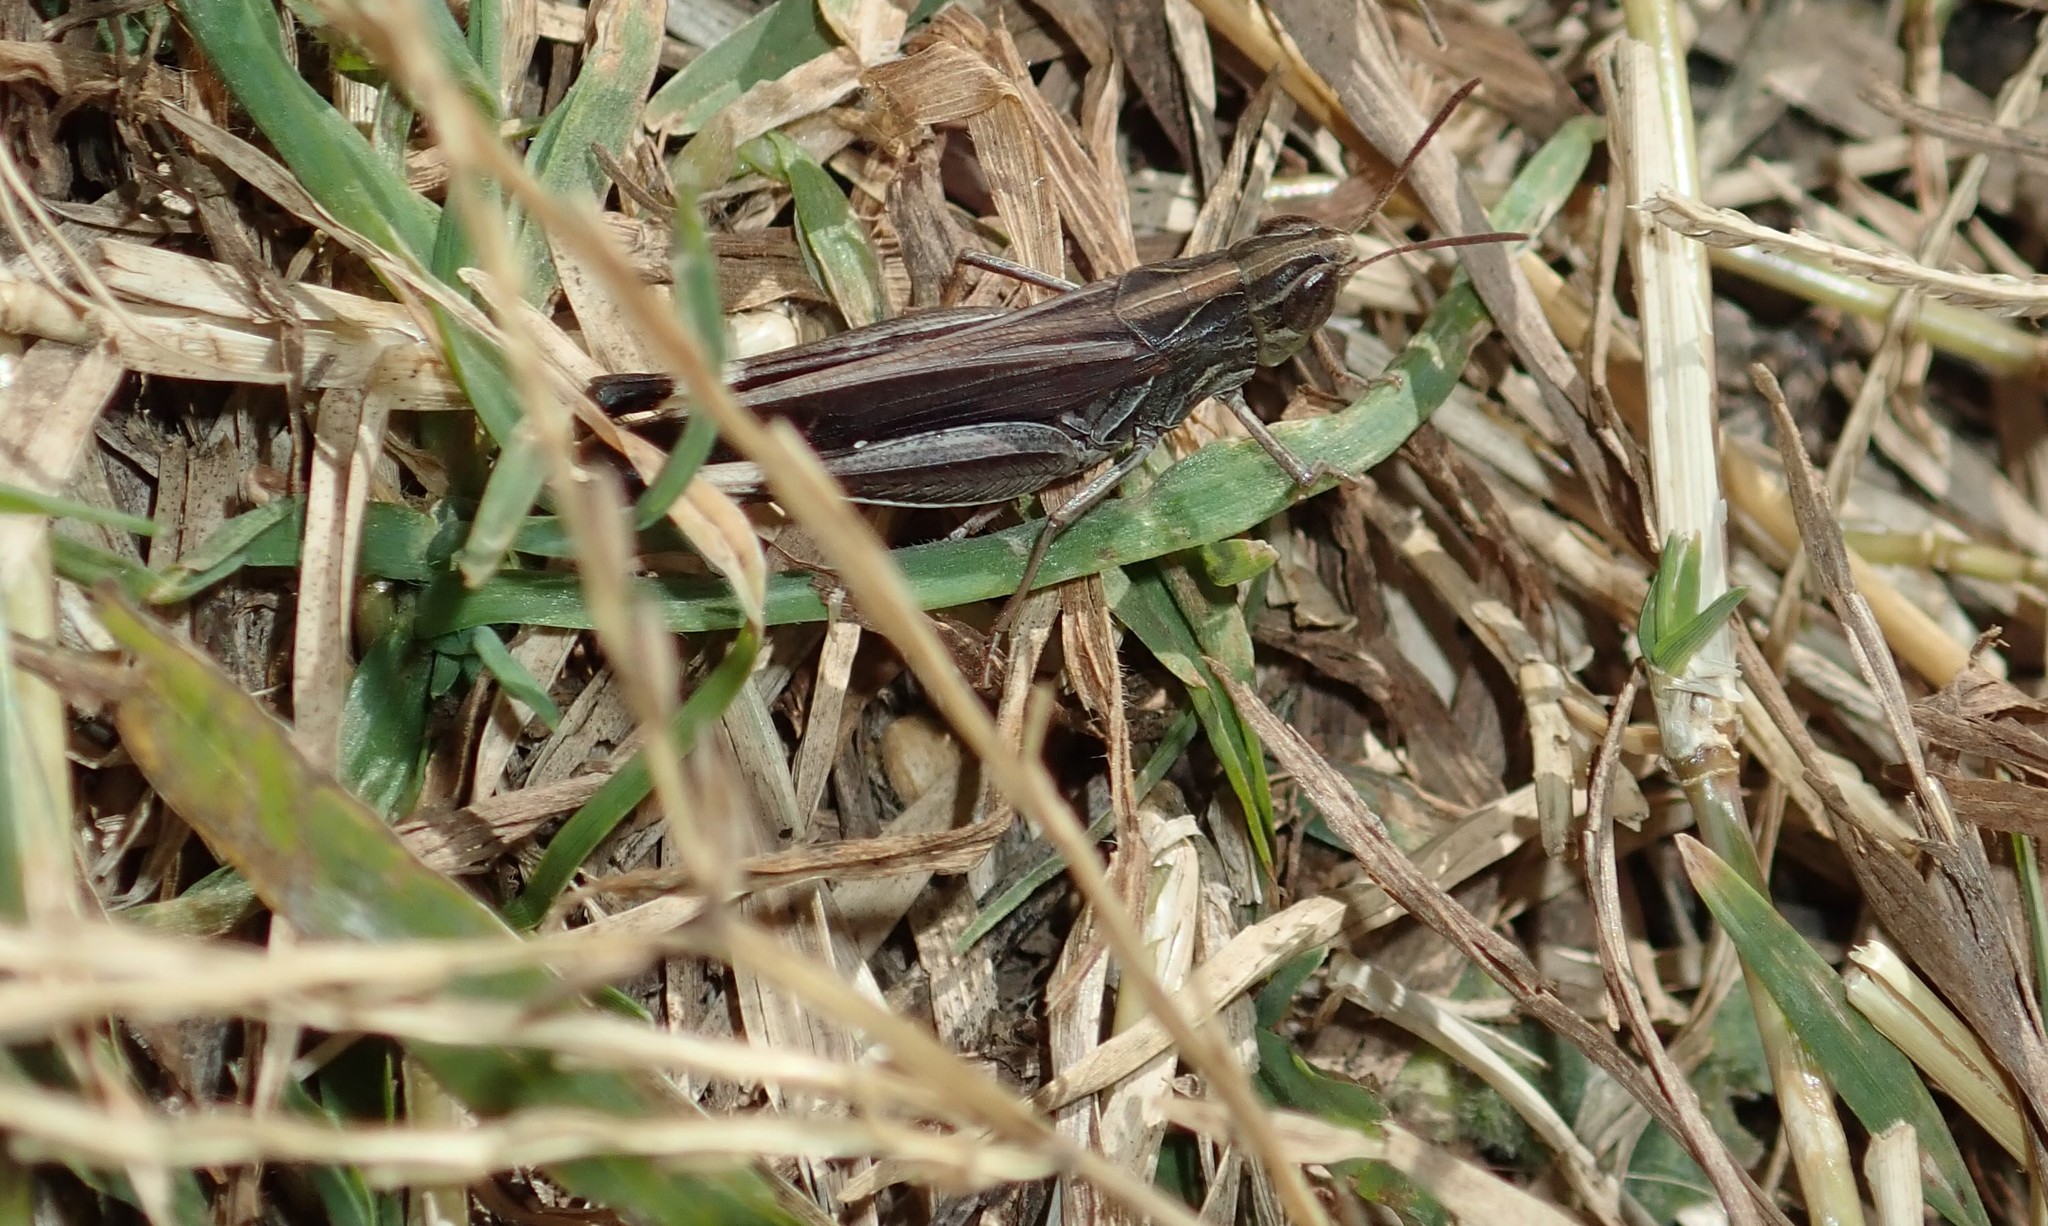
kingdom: Animalia
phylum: Arthropoda
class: Insecta
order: Orthoptera
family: Acrididae
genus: Caledia
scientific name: Caledia captiva
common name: Caledia
